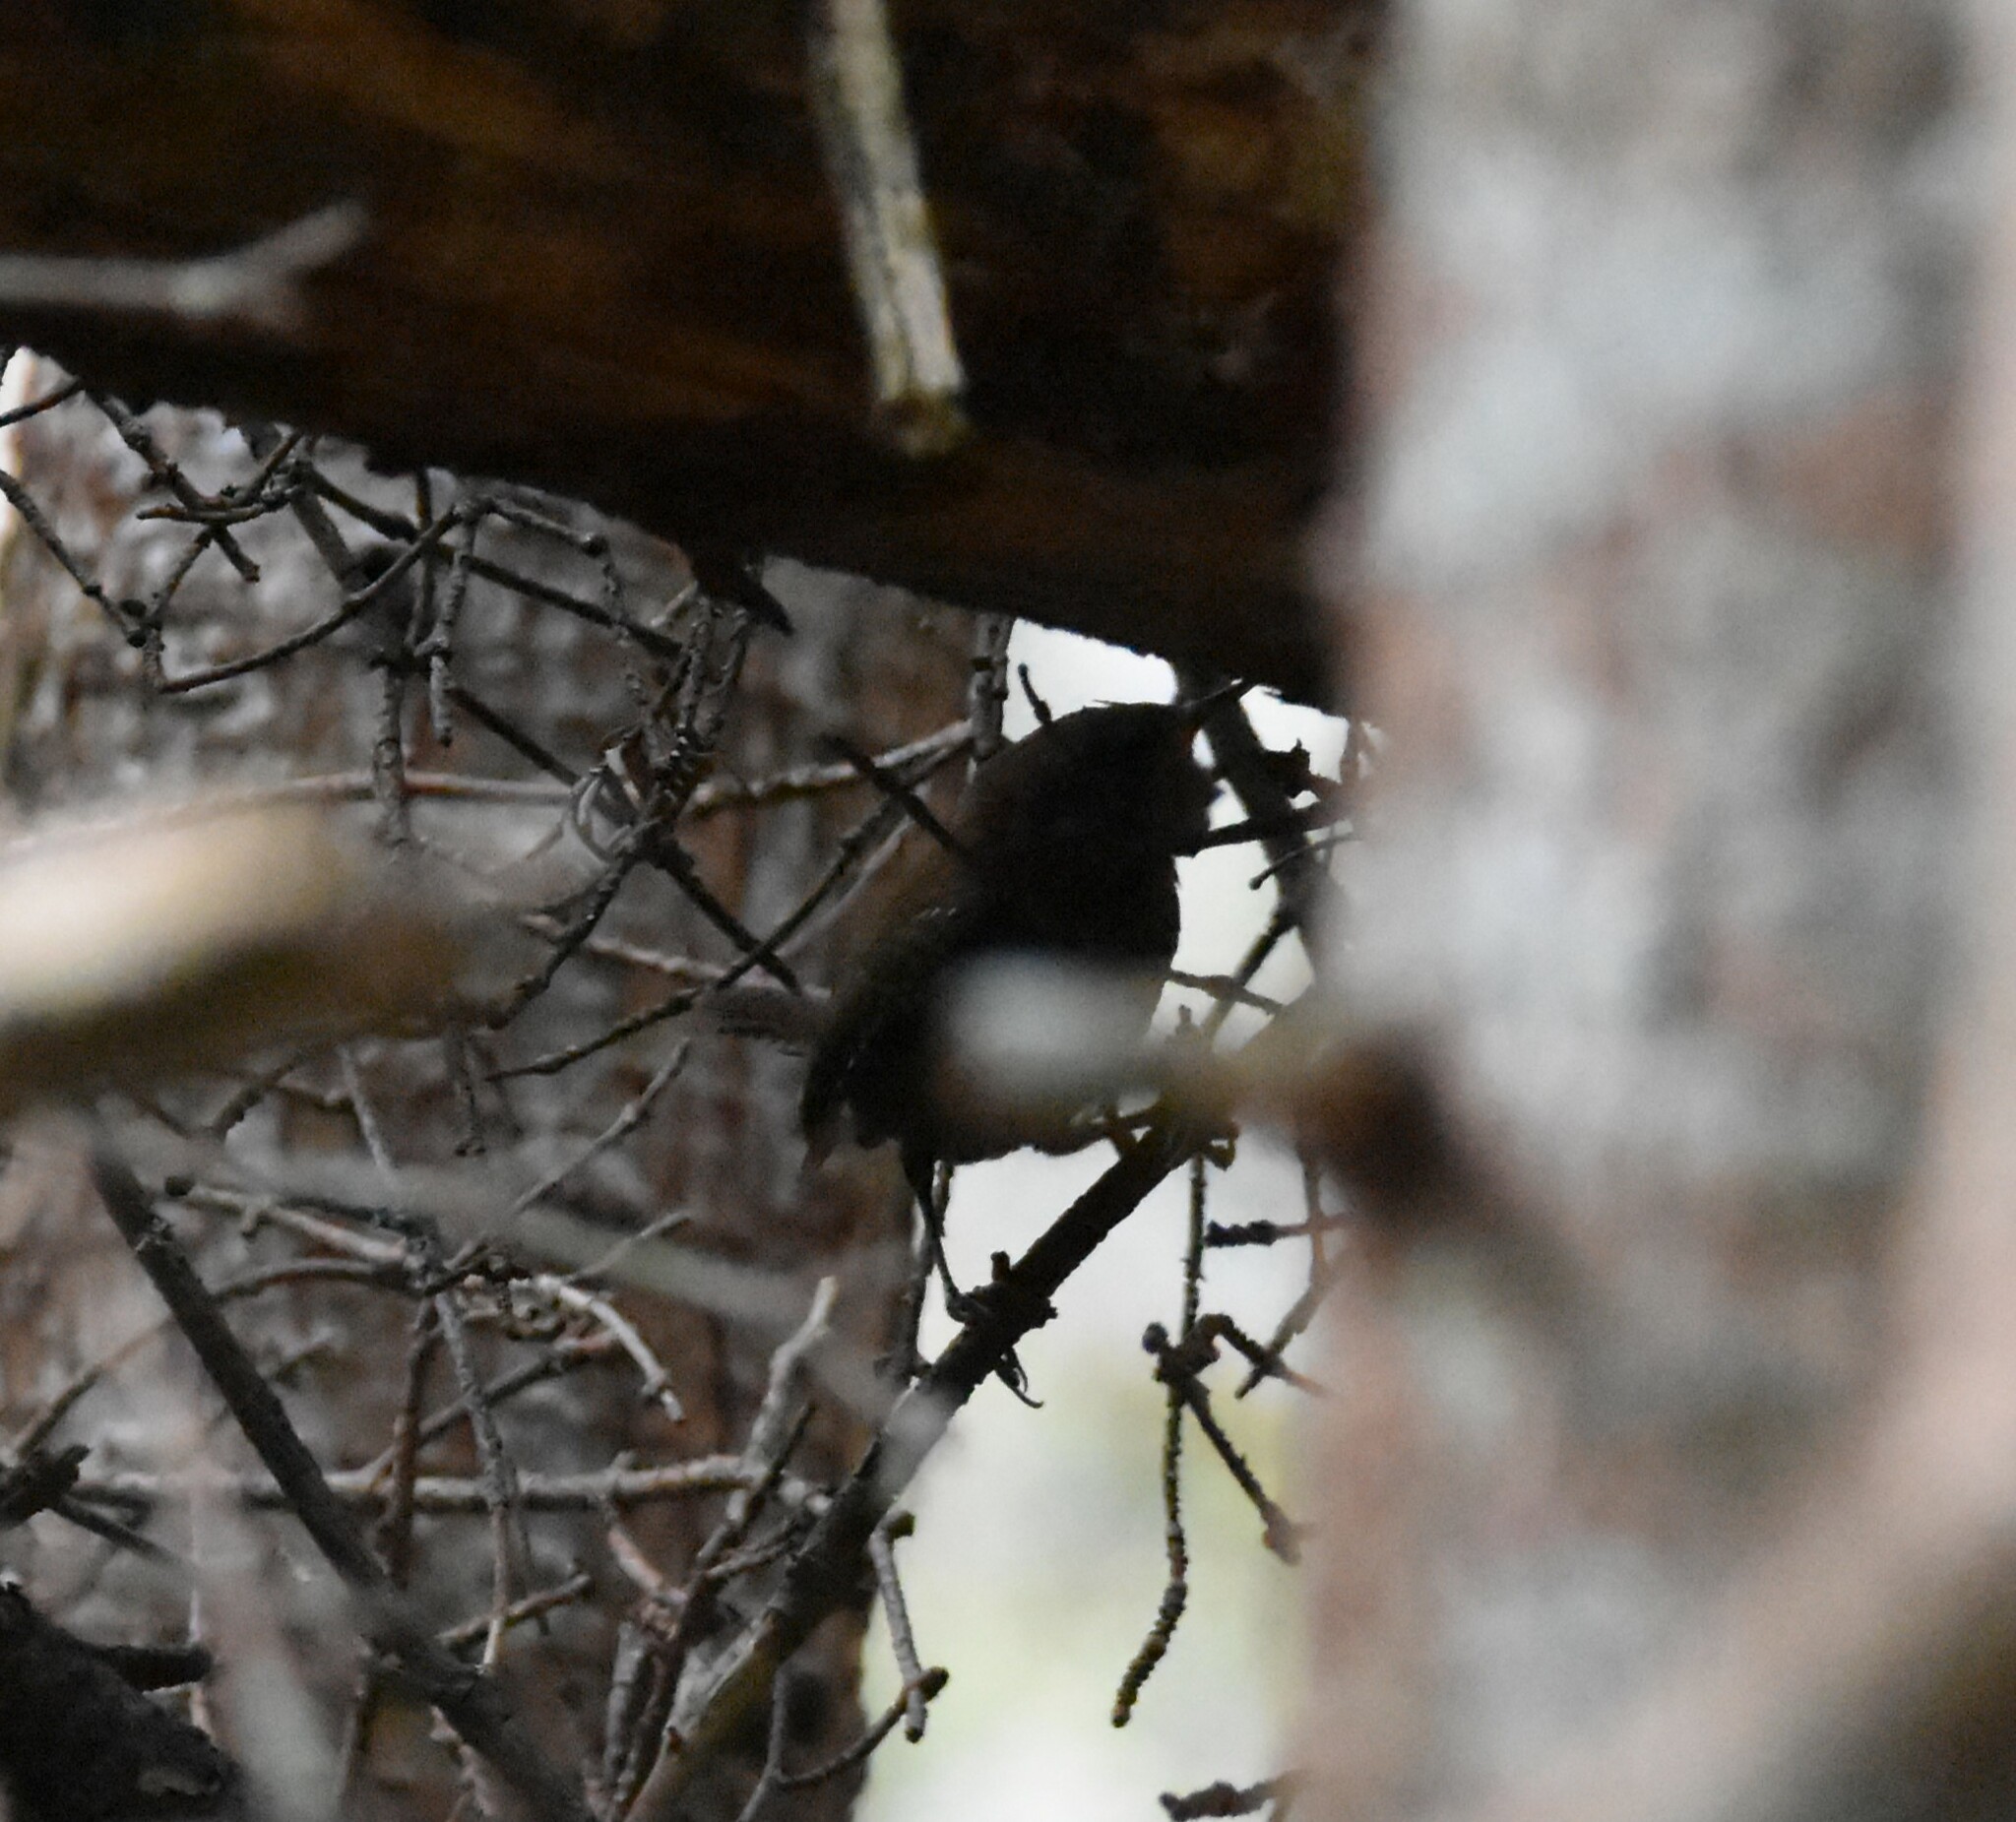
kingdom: Animalia
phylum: Chordata
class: Aves
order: Passeriformes
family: Troglodytidae
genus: Troglodytes
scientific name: Troglodytes hiemalis
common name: Winter wren
